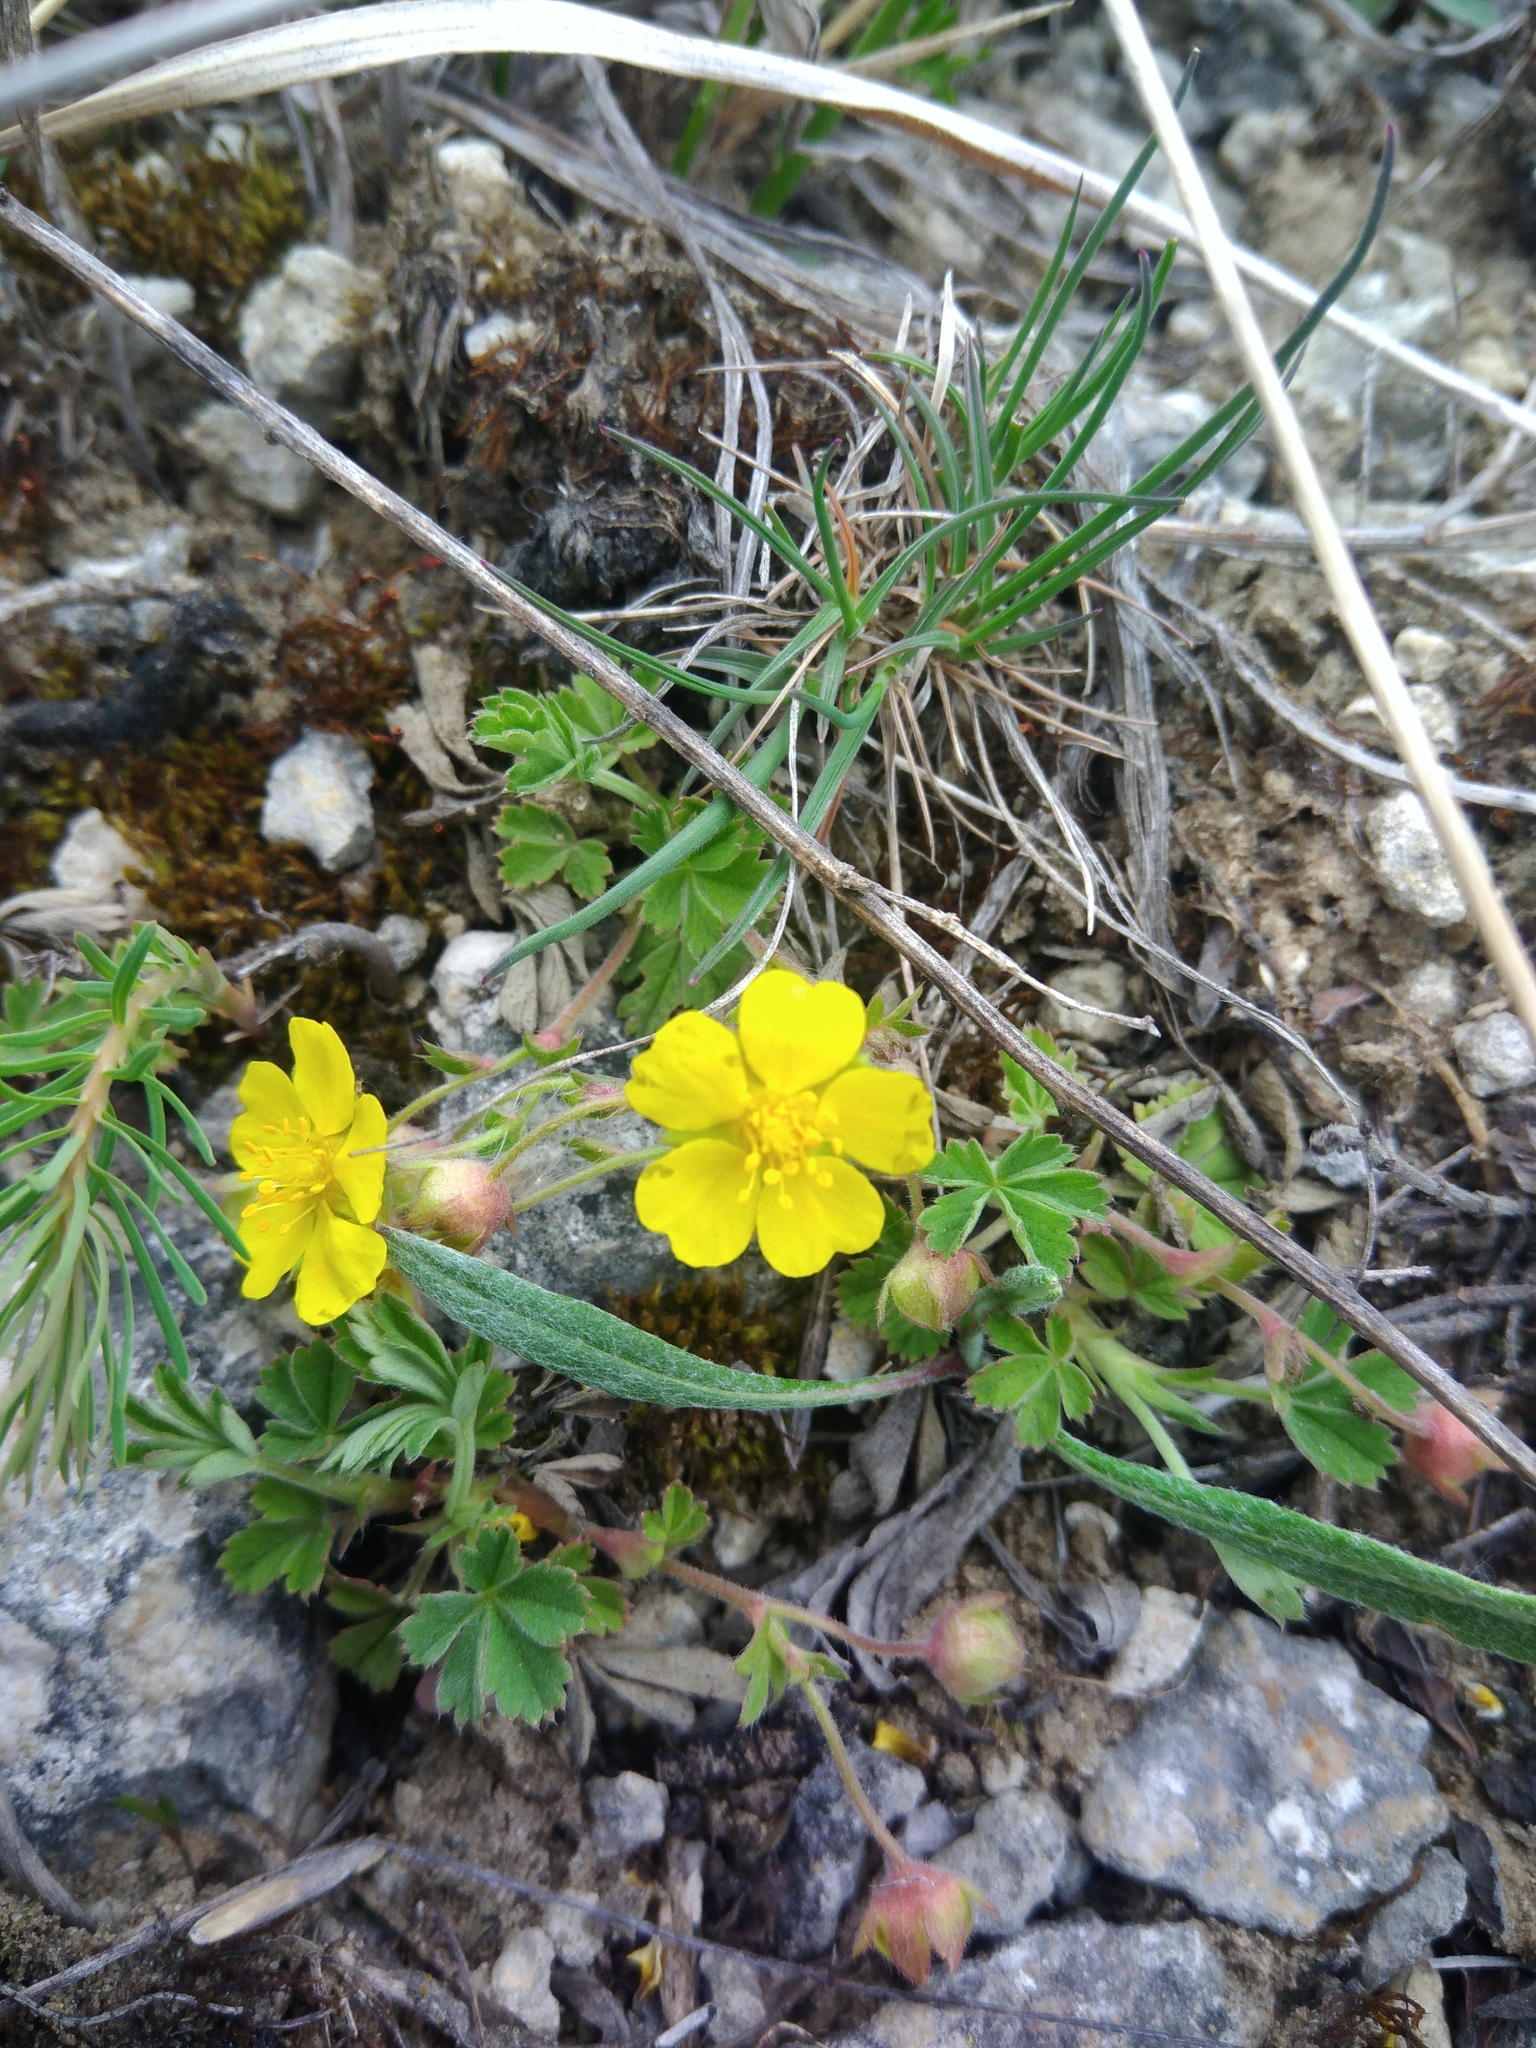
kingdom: Plantae
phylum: Tracheophyta
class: Magnoliopsida
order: Rosales
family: Rosaceae
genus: Potentilla
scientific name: Potentilla incana
